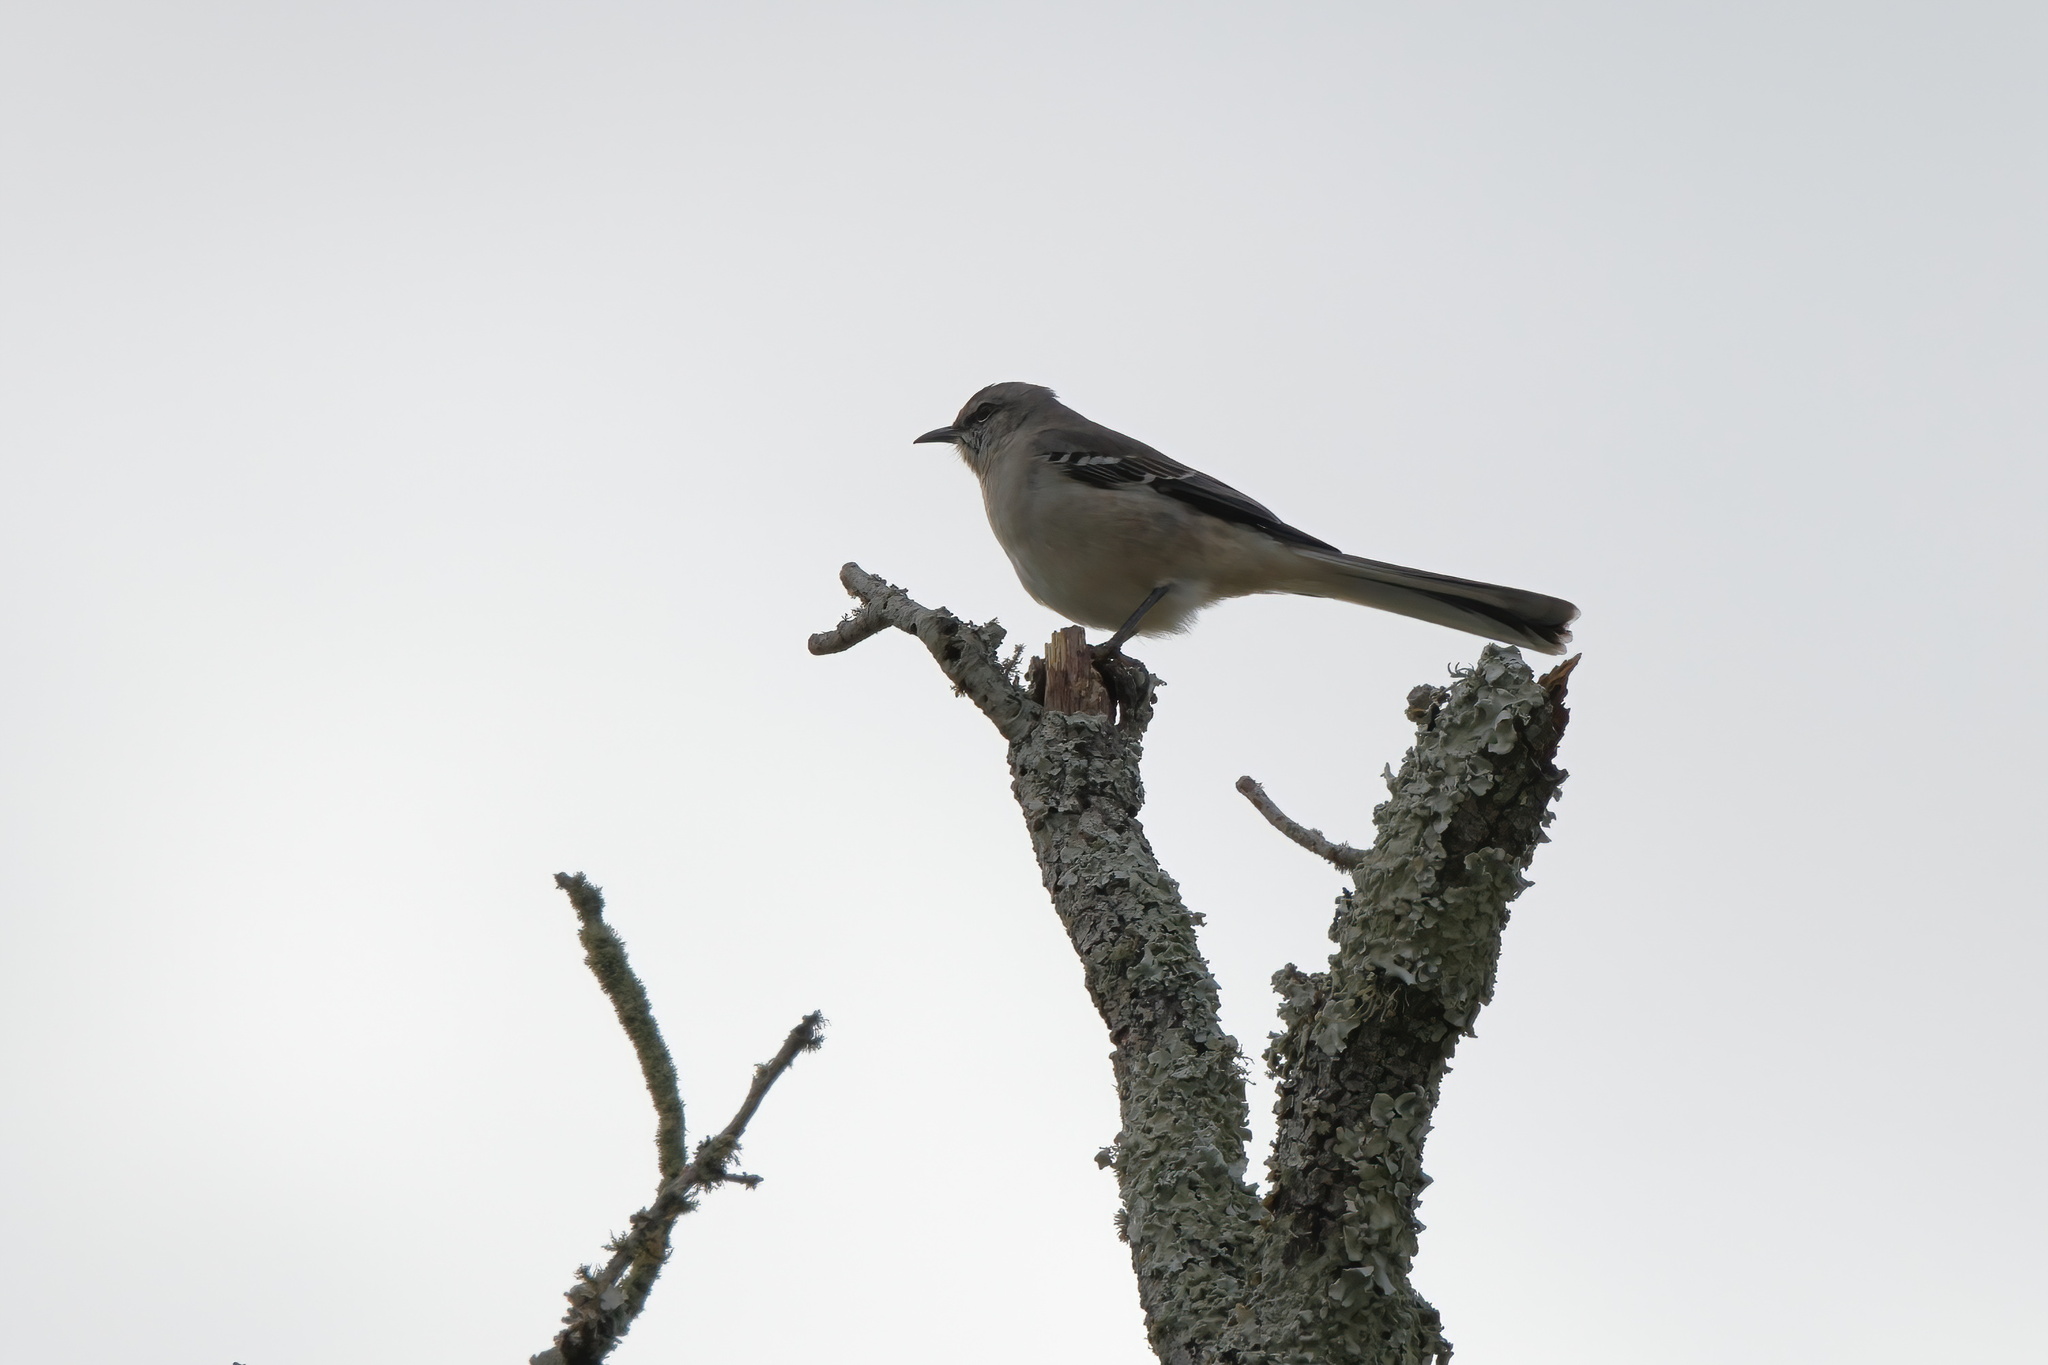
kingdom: Animalia
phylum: Chordata
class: Aves
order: Passeriformes
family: Mimidae
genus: Mimus
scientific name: Mimus polyglottos
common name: Northern mockingbird
